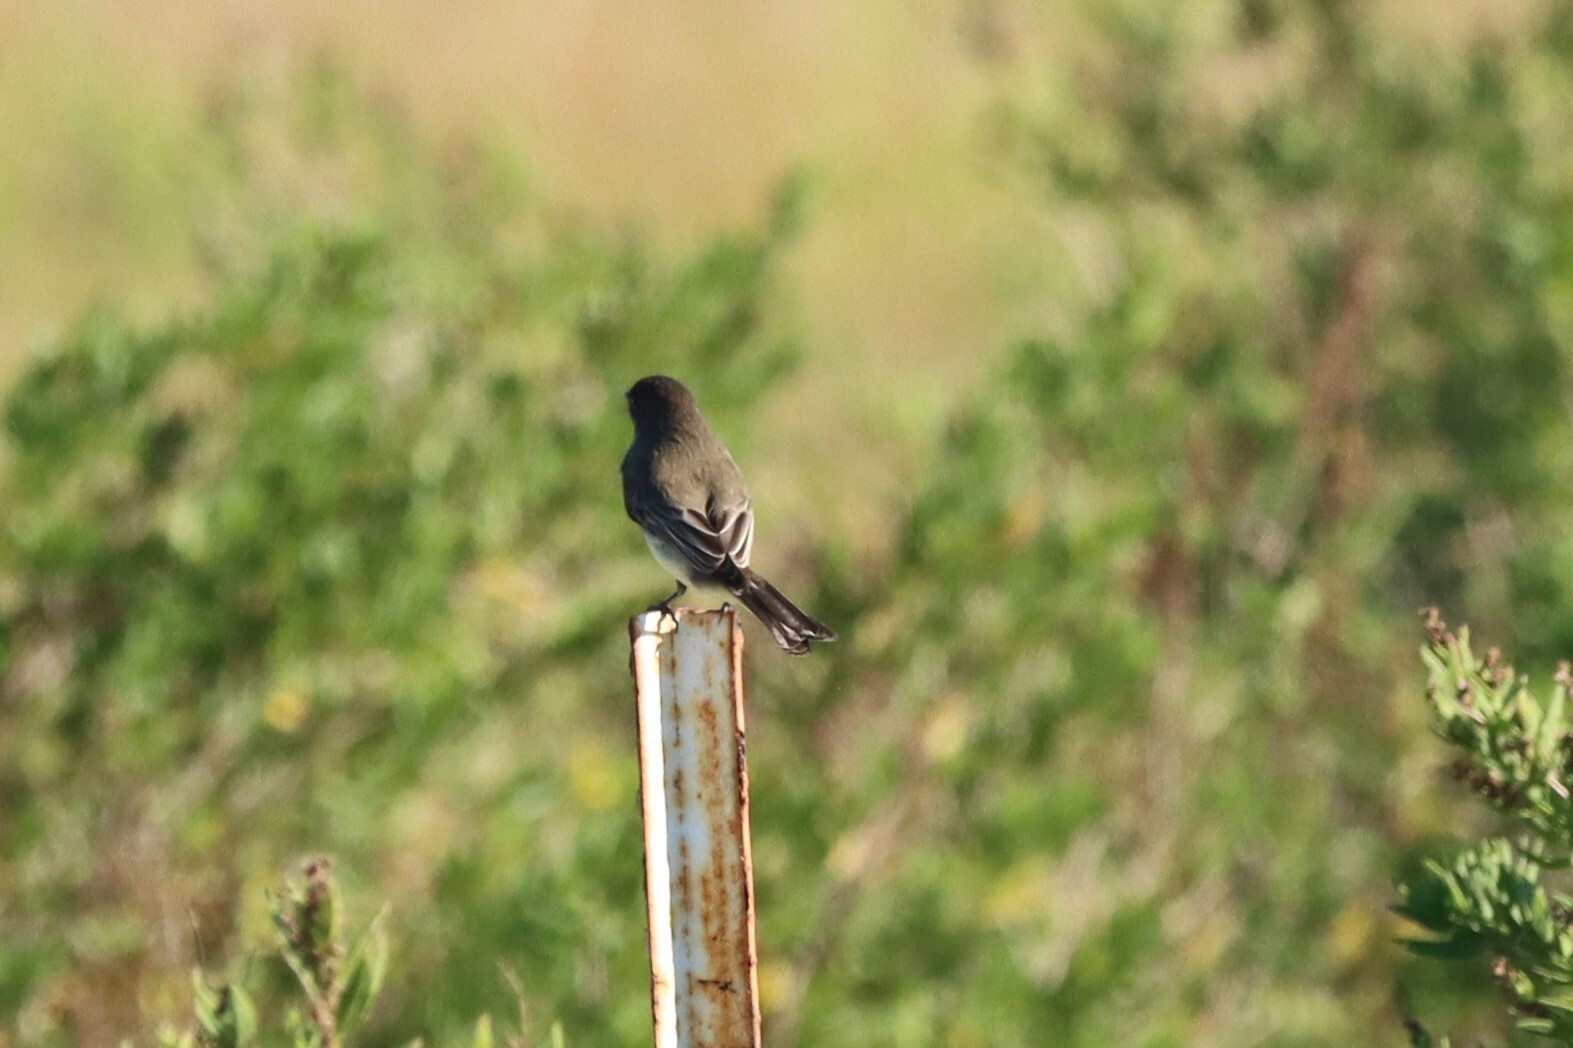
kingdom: Animalia
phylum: Chordata
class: Aves
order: Passeriformes
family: Tyrannidae
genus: Sayornis
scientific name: Sayornis phoebe
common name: Eastern phoebe
